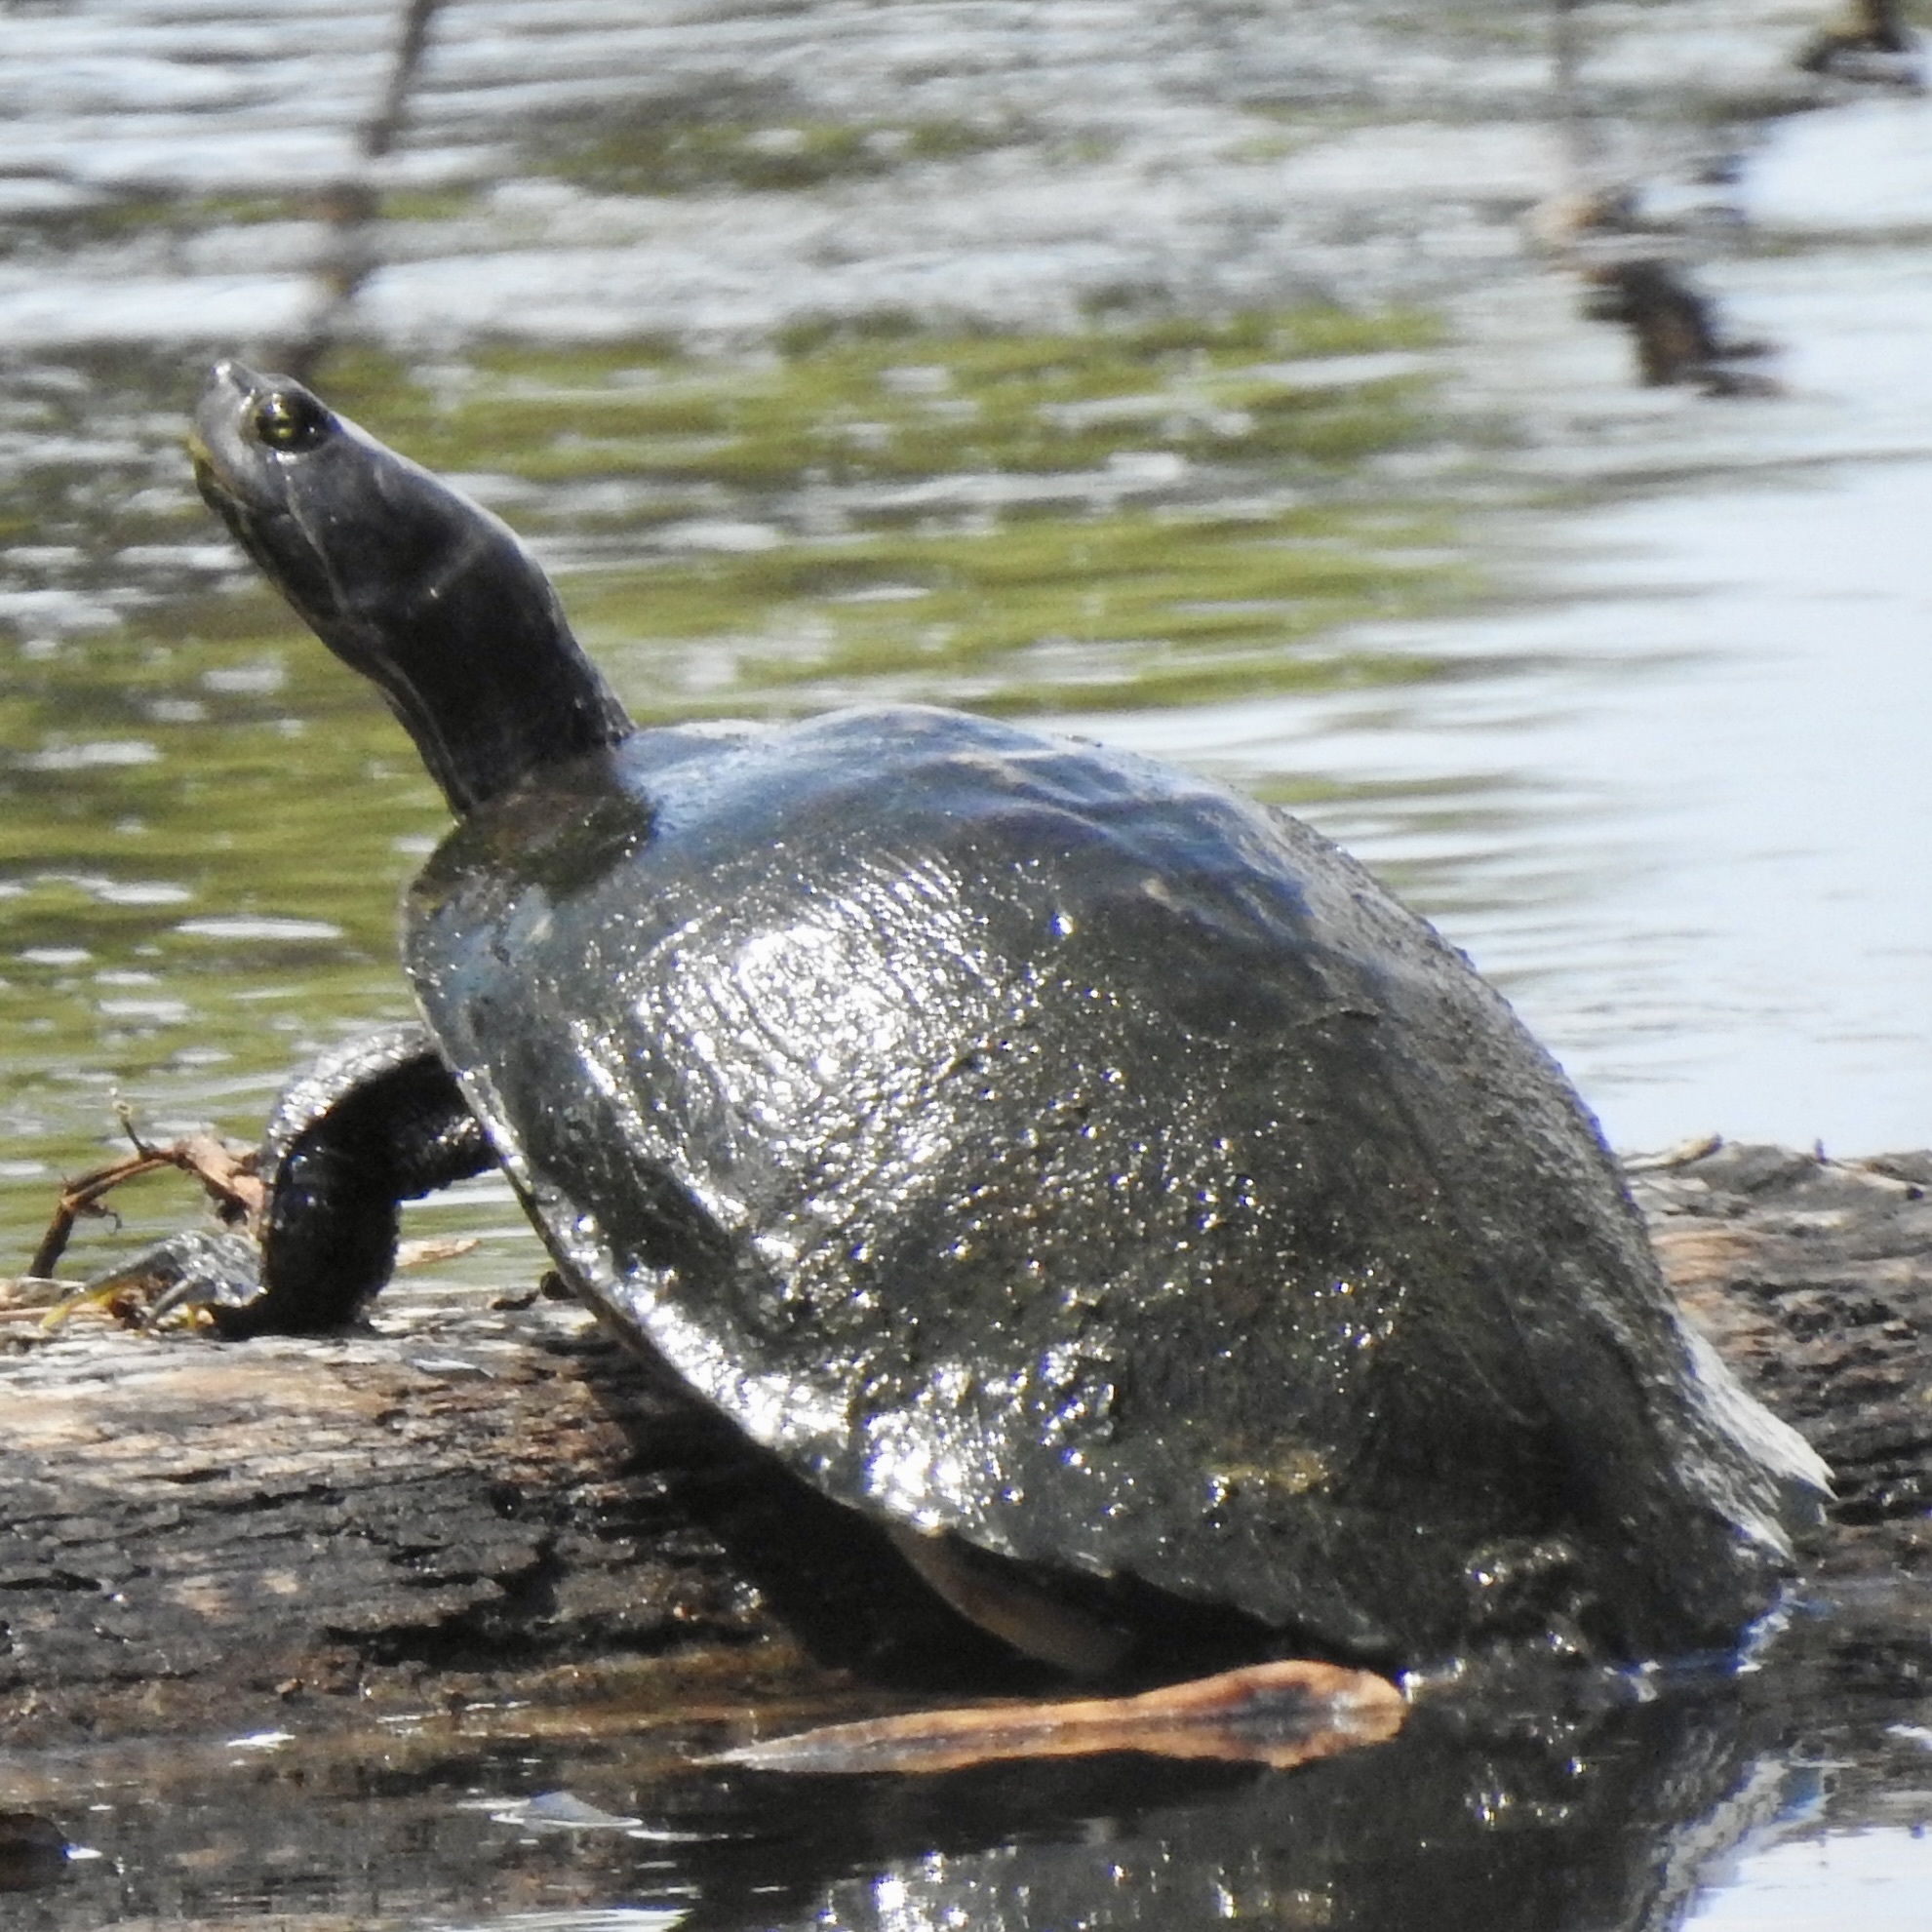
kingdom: Animalia
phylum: Chordata
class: Testudines
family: Emydidae
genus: Pseudemys
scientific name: Pseudemys concinna
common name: Eastern river cooter
